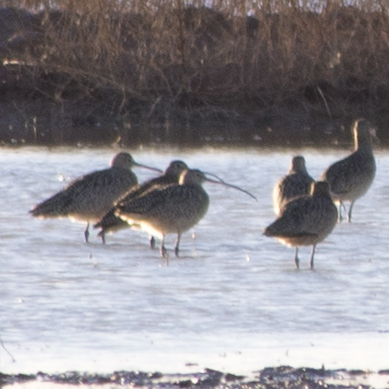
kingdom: Animalia
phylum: Chordata
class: Aves
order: Charadriiformes
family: Scolopacidae
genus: Numenius
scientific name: Numenius americanus
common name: Long-billed curlew
